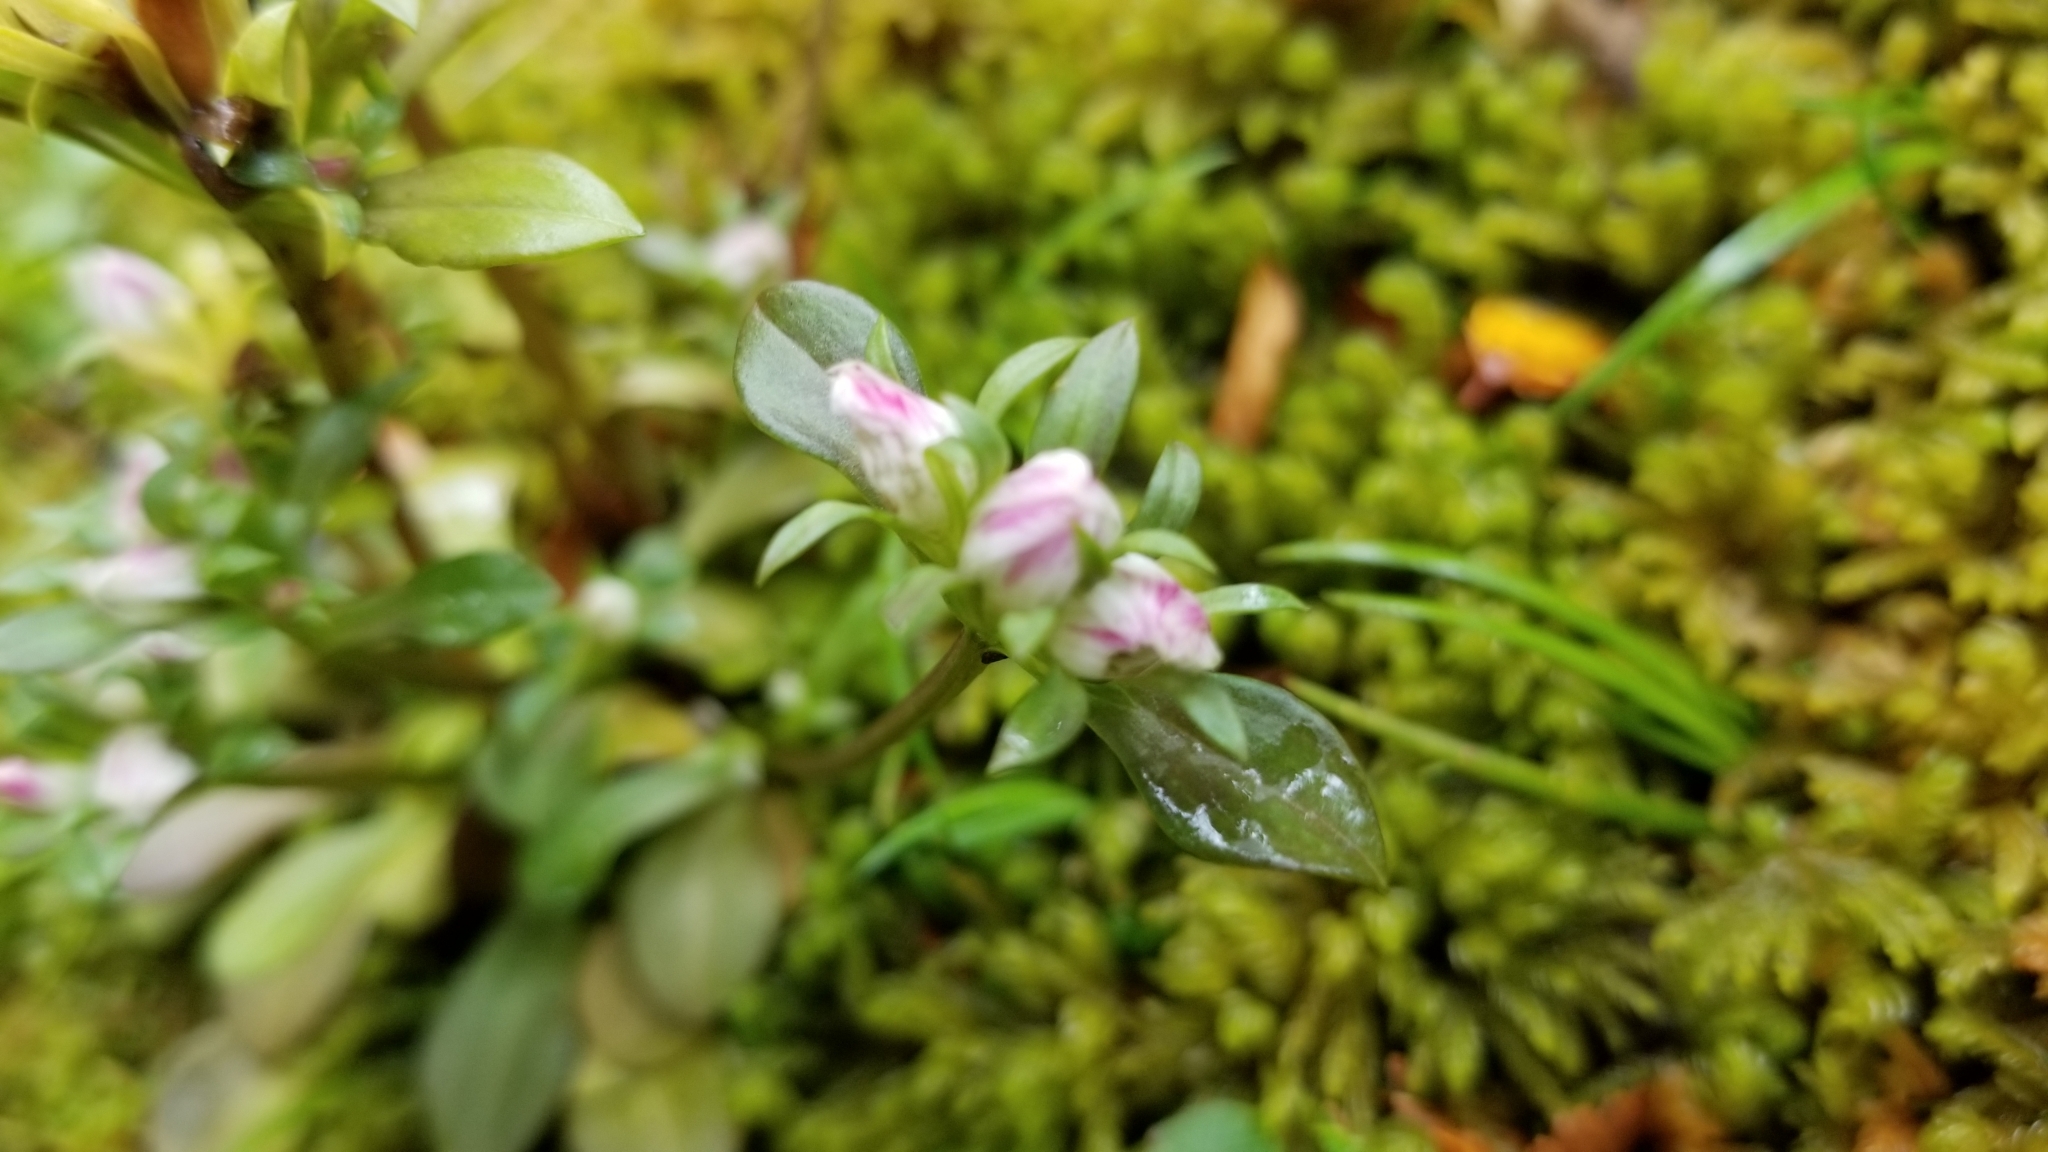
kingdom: Plantae
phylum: Tracheophyta
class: Magnoliopsida
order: Gentianales
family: Gentianaceae
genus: Gentianella
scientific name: Gentianella spenceri
